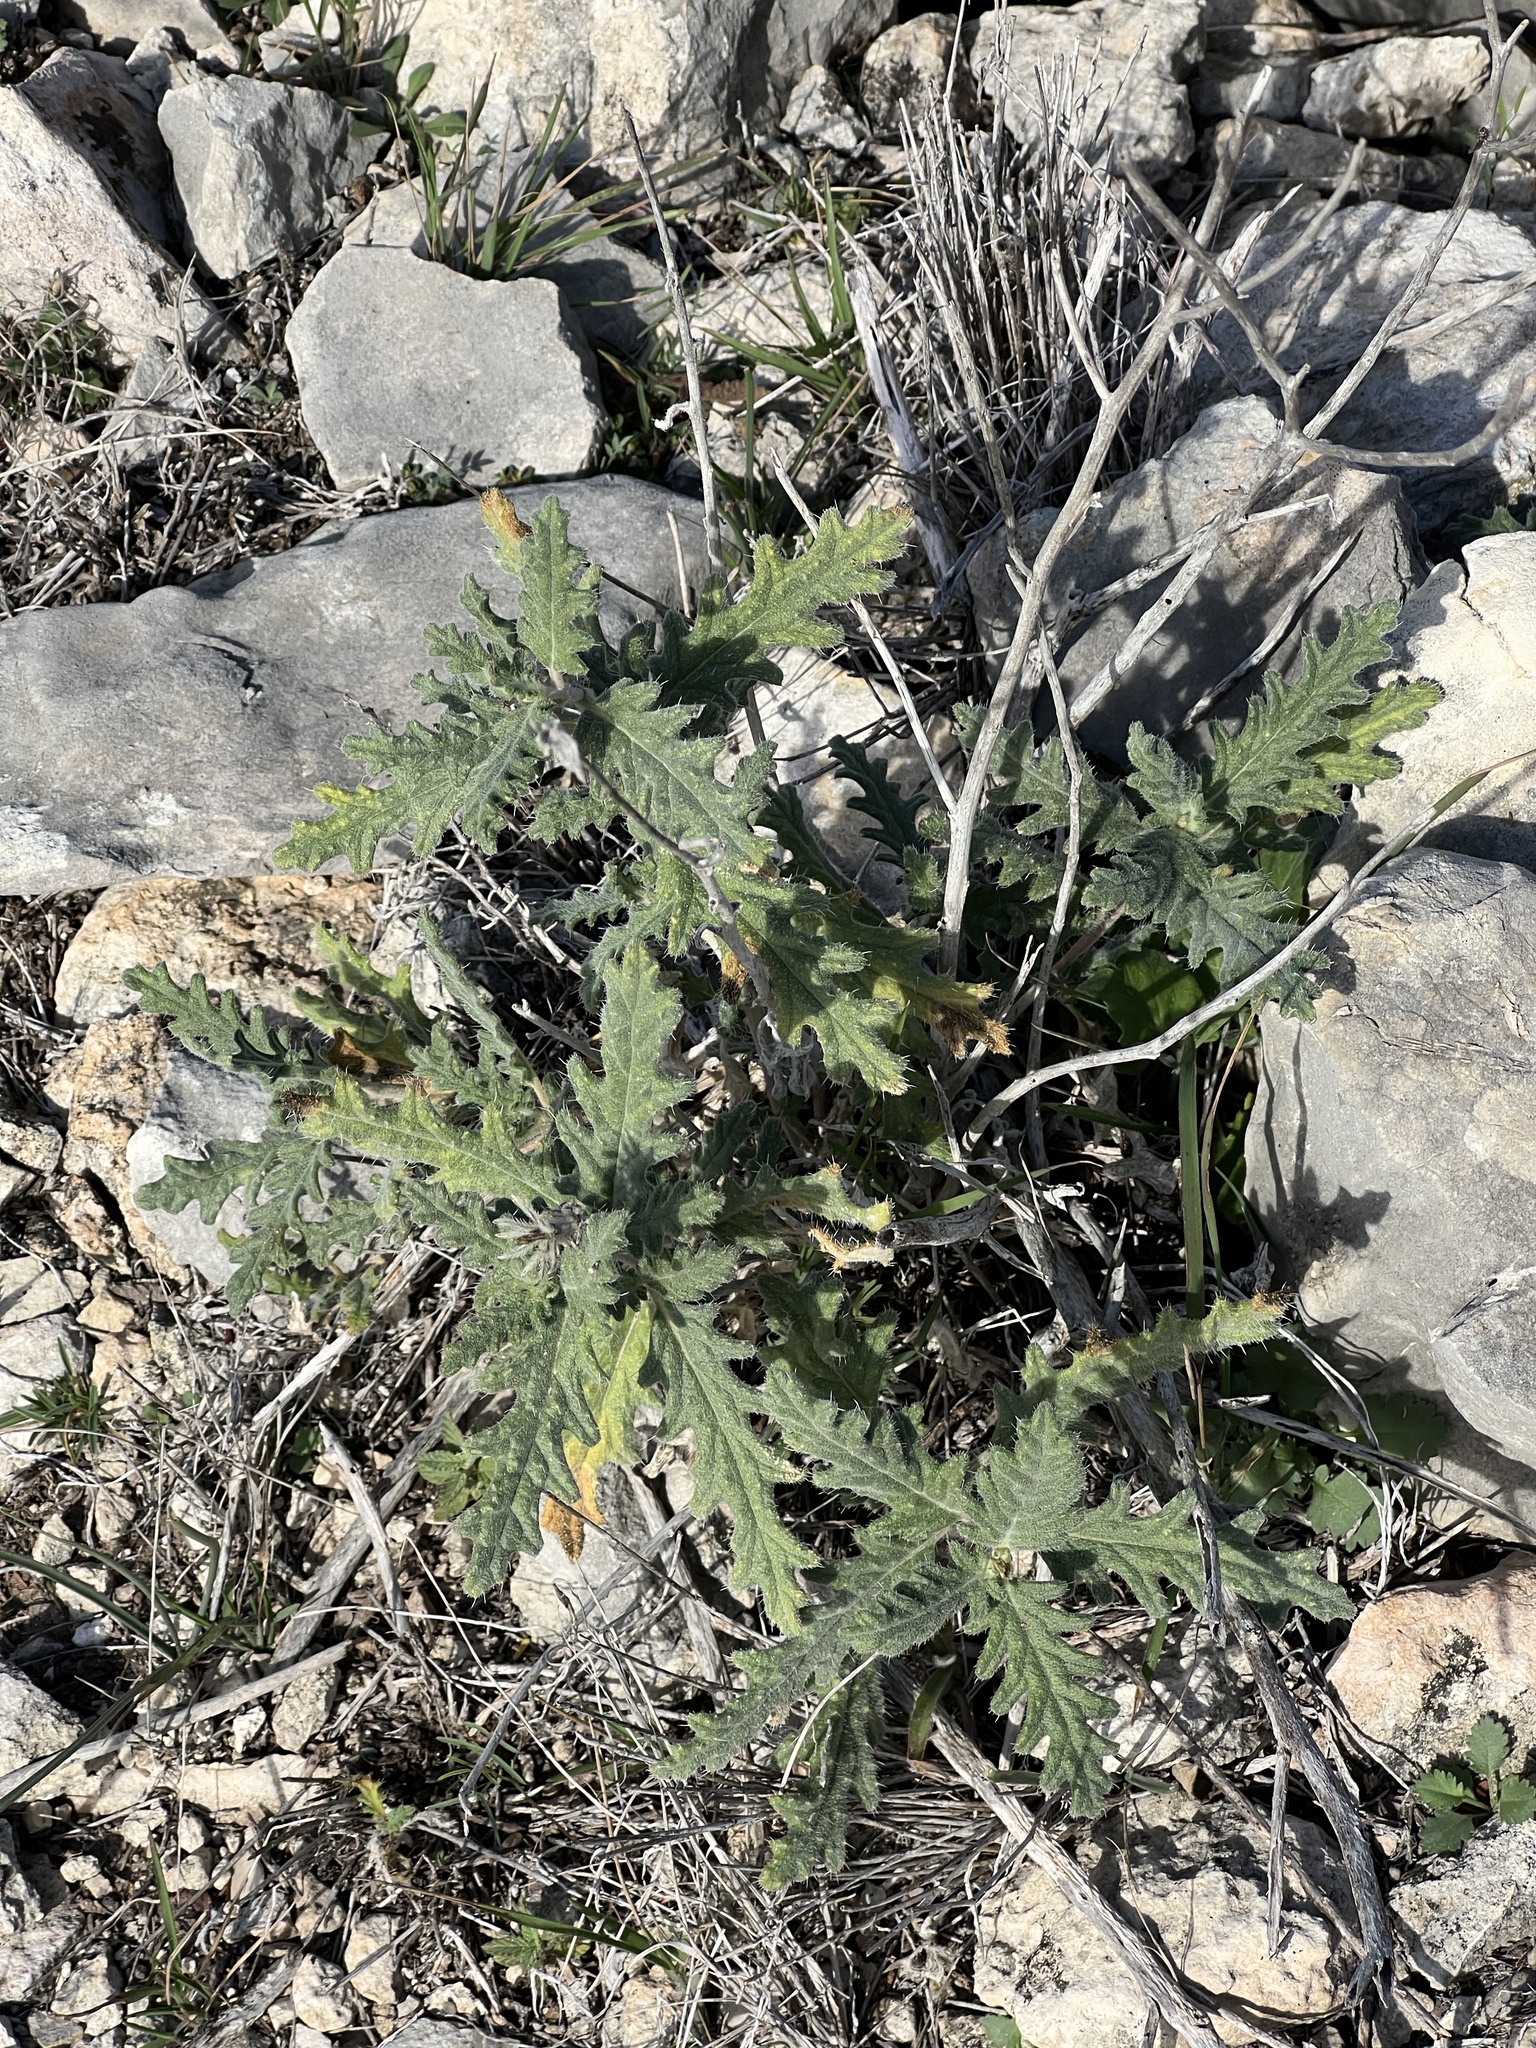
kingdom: Plantae
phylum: Tracheophyta
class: Magnoliopsida
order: Cornales
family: Loasaceae
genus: Cevallia
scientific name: Cevallia sinuata
